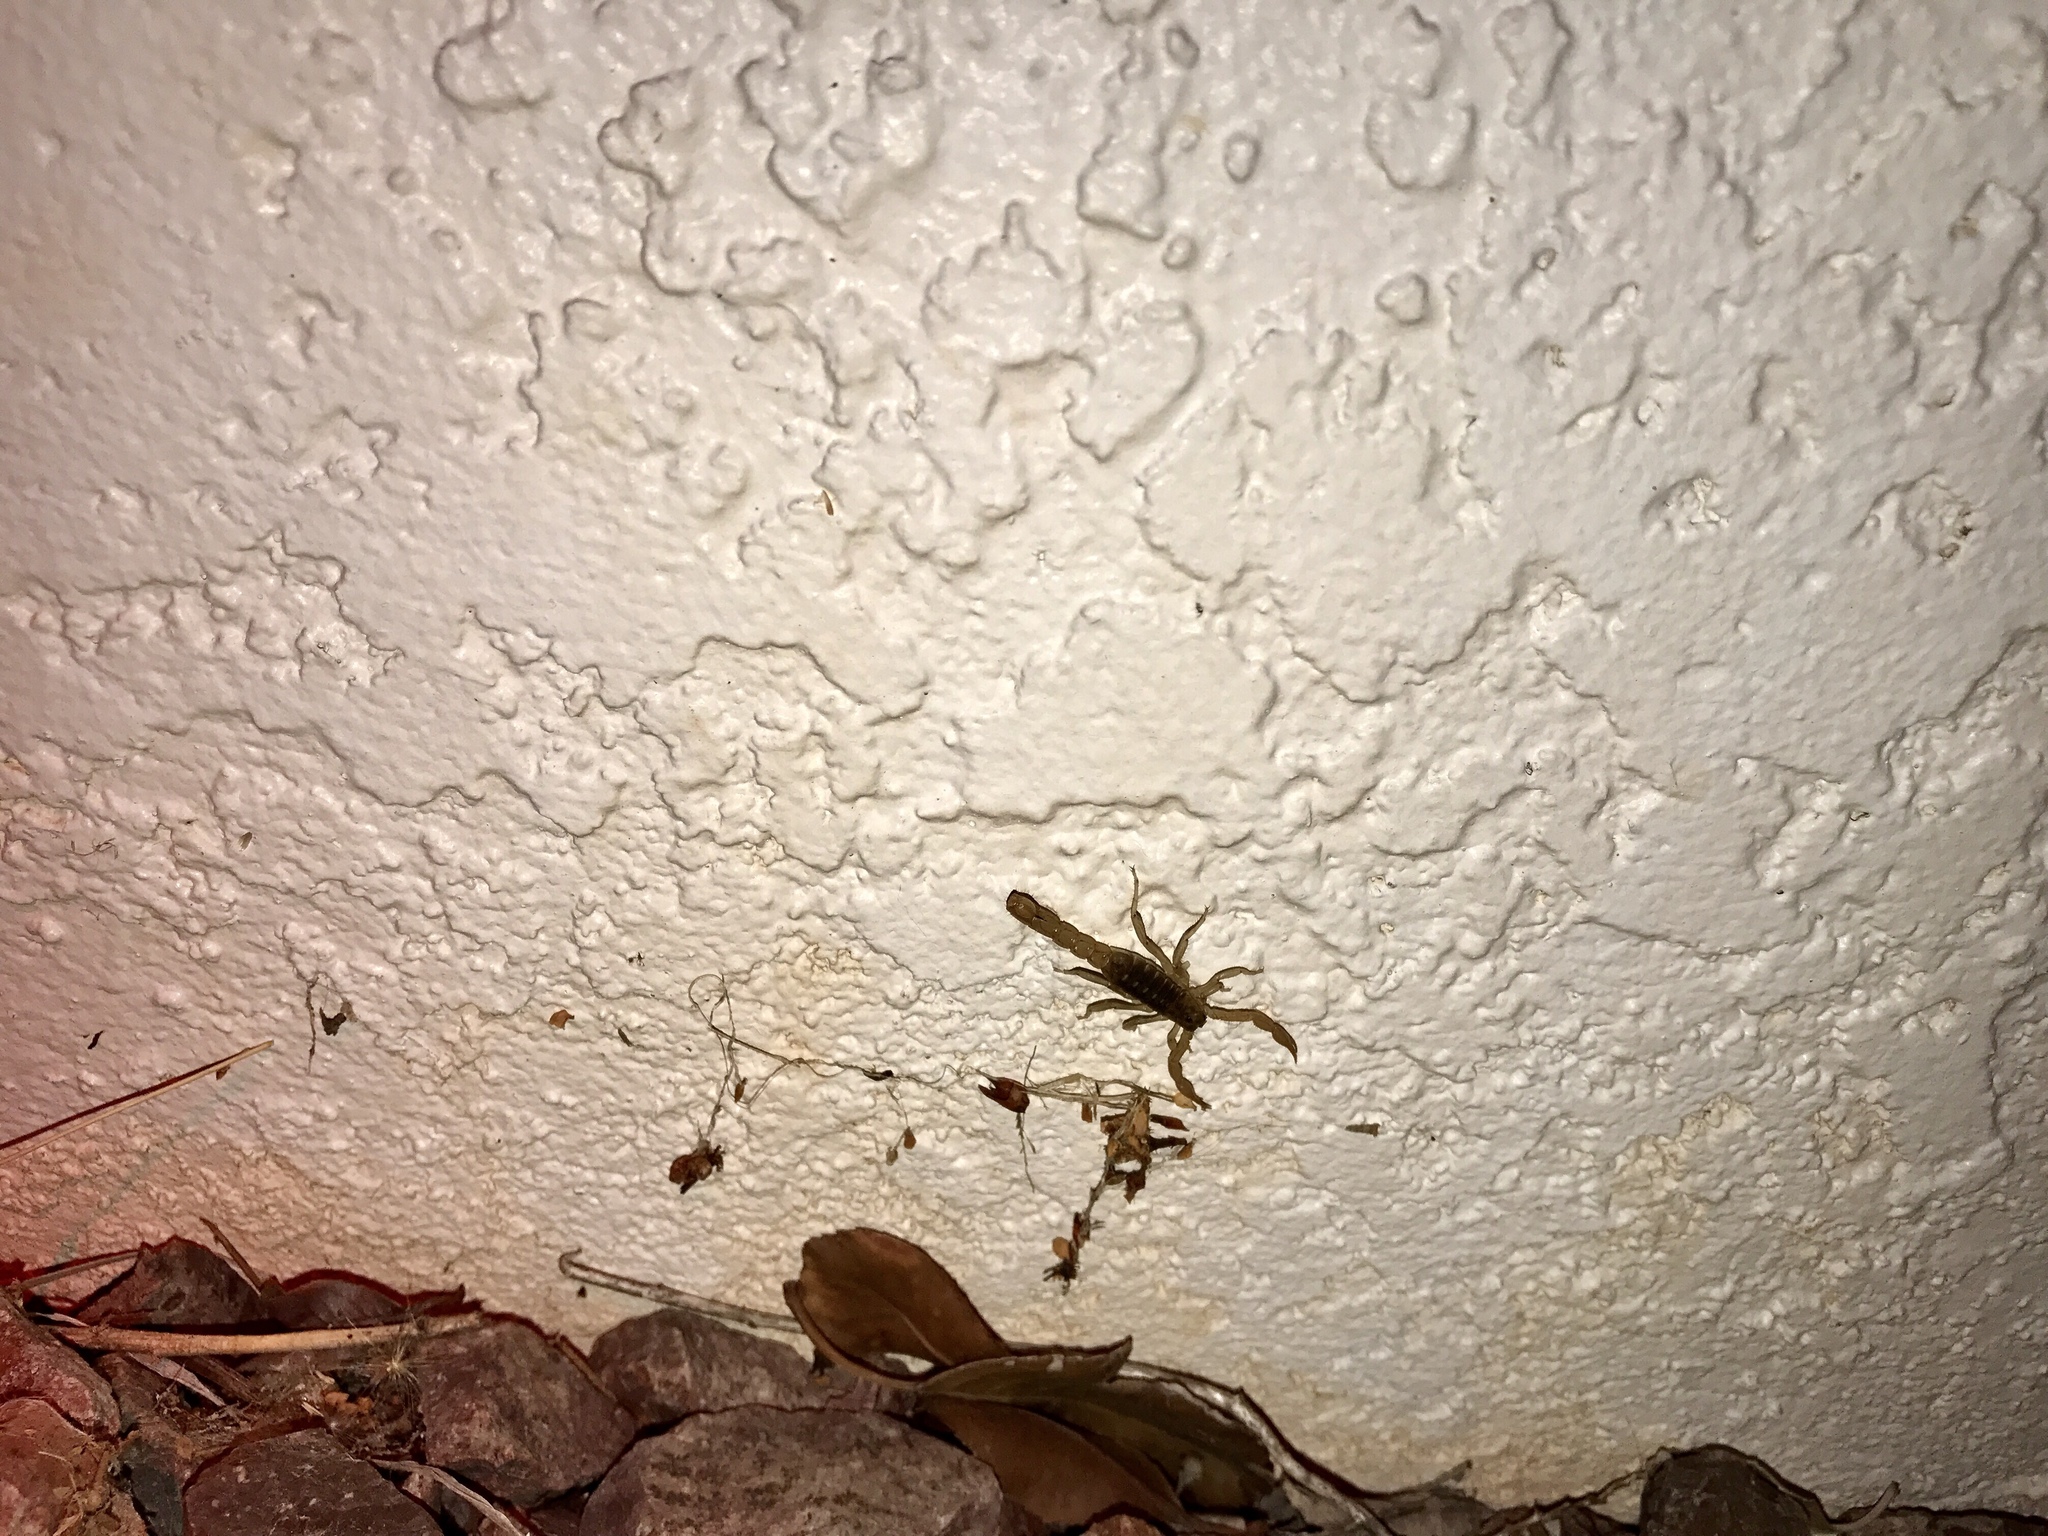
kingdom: Animalia
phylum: Arthropoda
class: Arachnida
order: Scorpiones
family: Vaejovidae
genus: Paravaejovis
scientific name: Paravaejovis spinigerus
